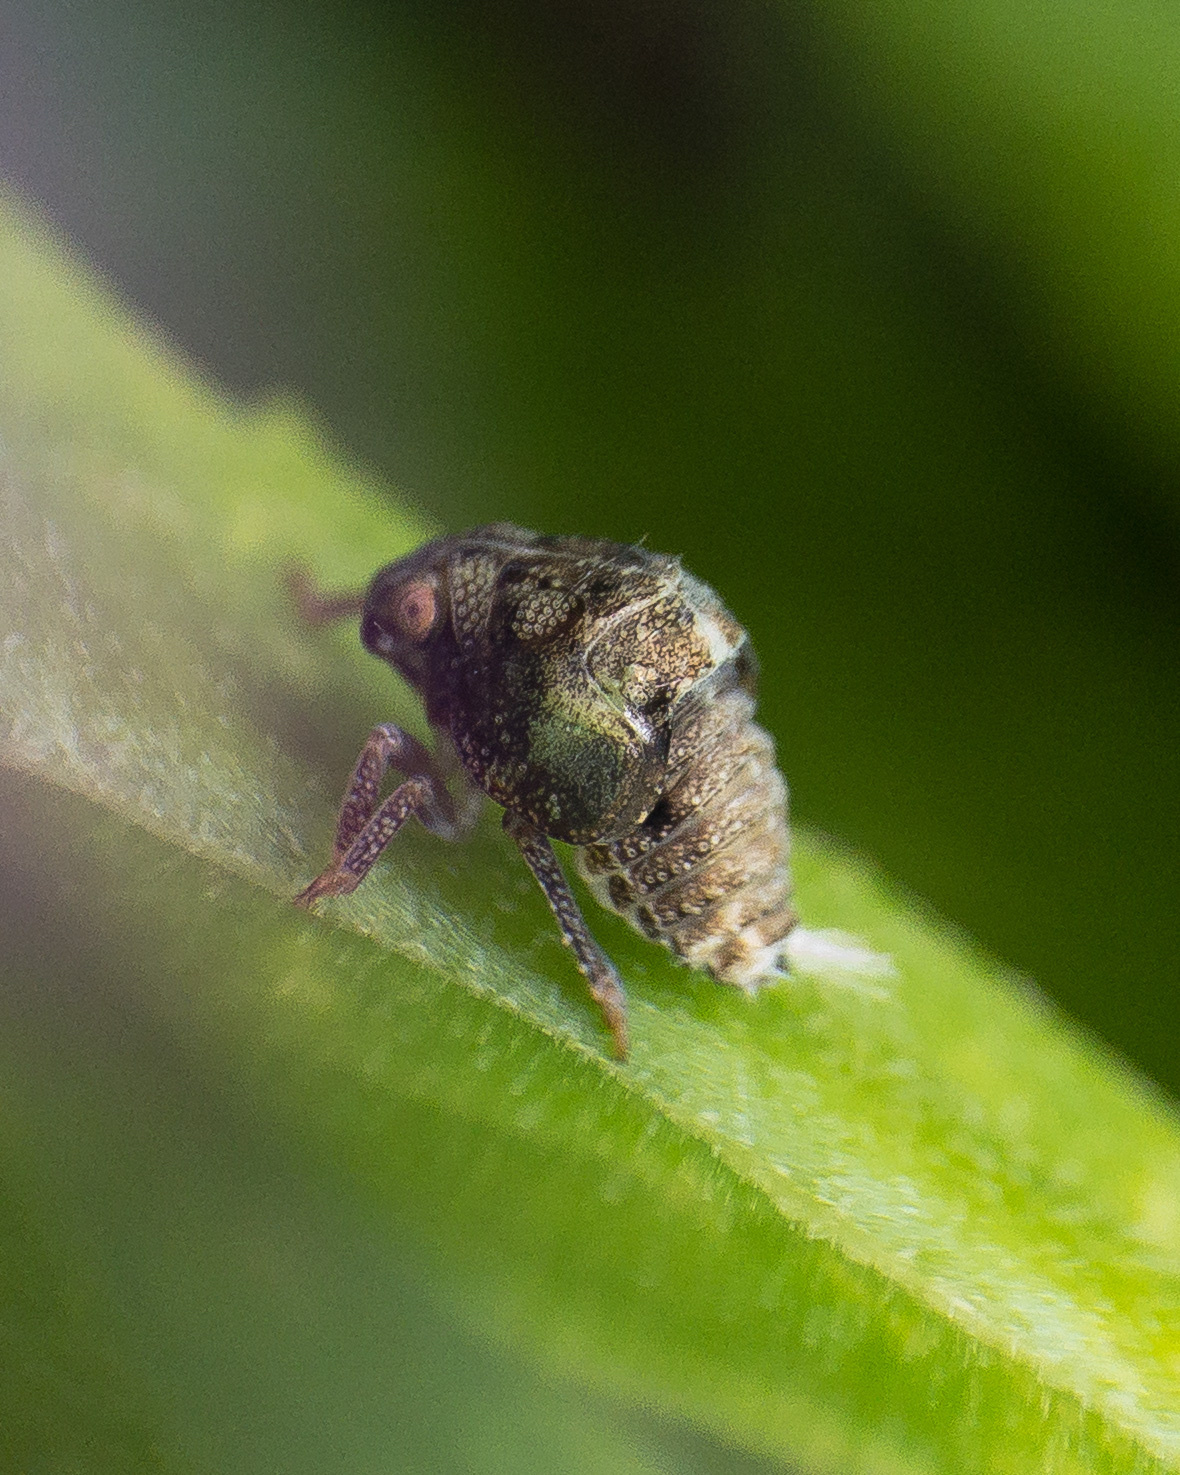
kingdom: Animalia
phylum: Arthropoda
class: Insecta
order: Hemiptera
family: Acanaloniidae
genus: Acanalonia
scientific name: Acanalonia conica
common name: Green cone-headed planthopper
